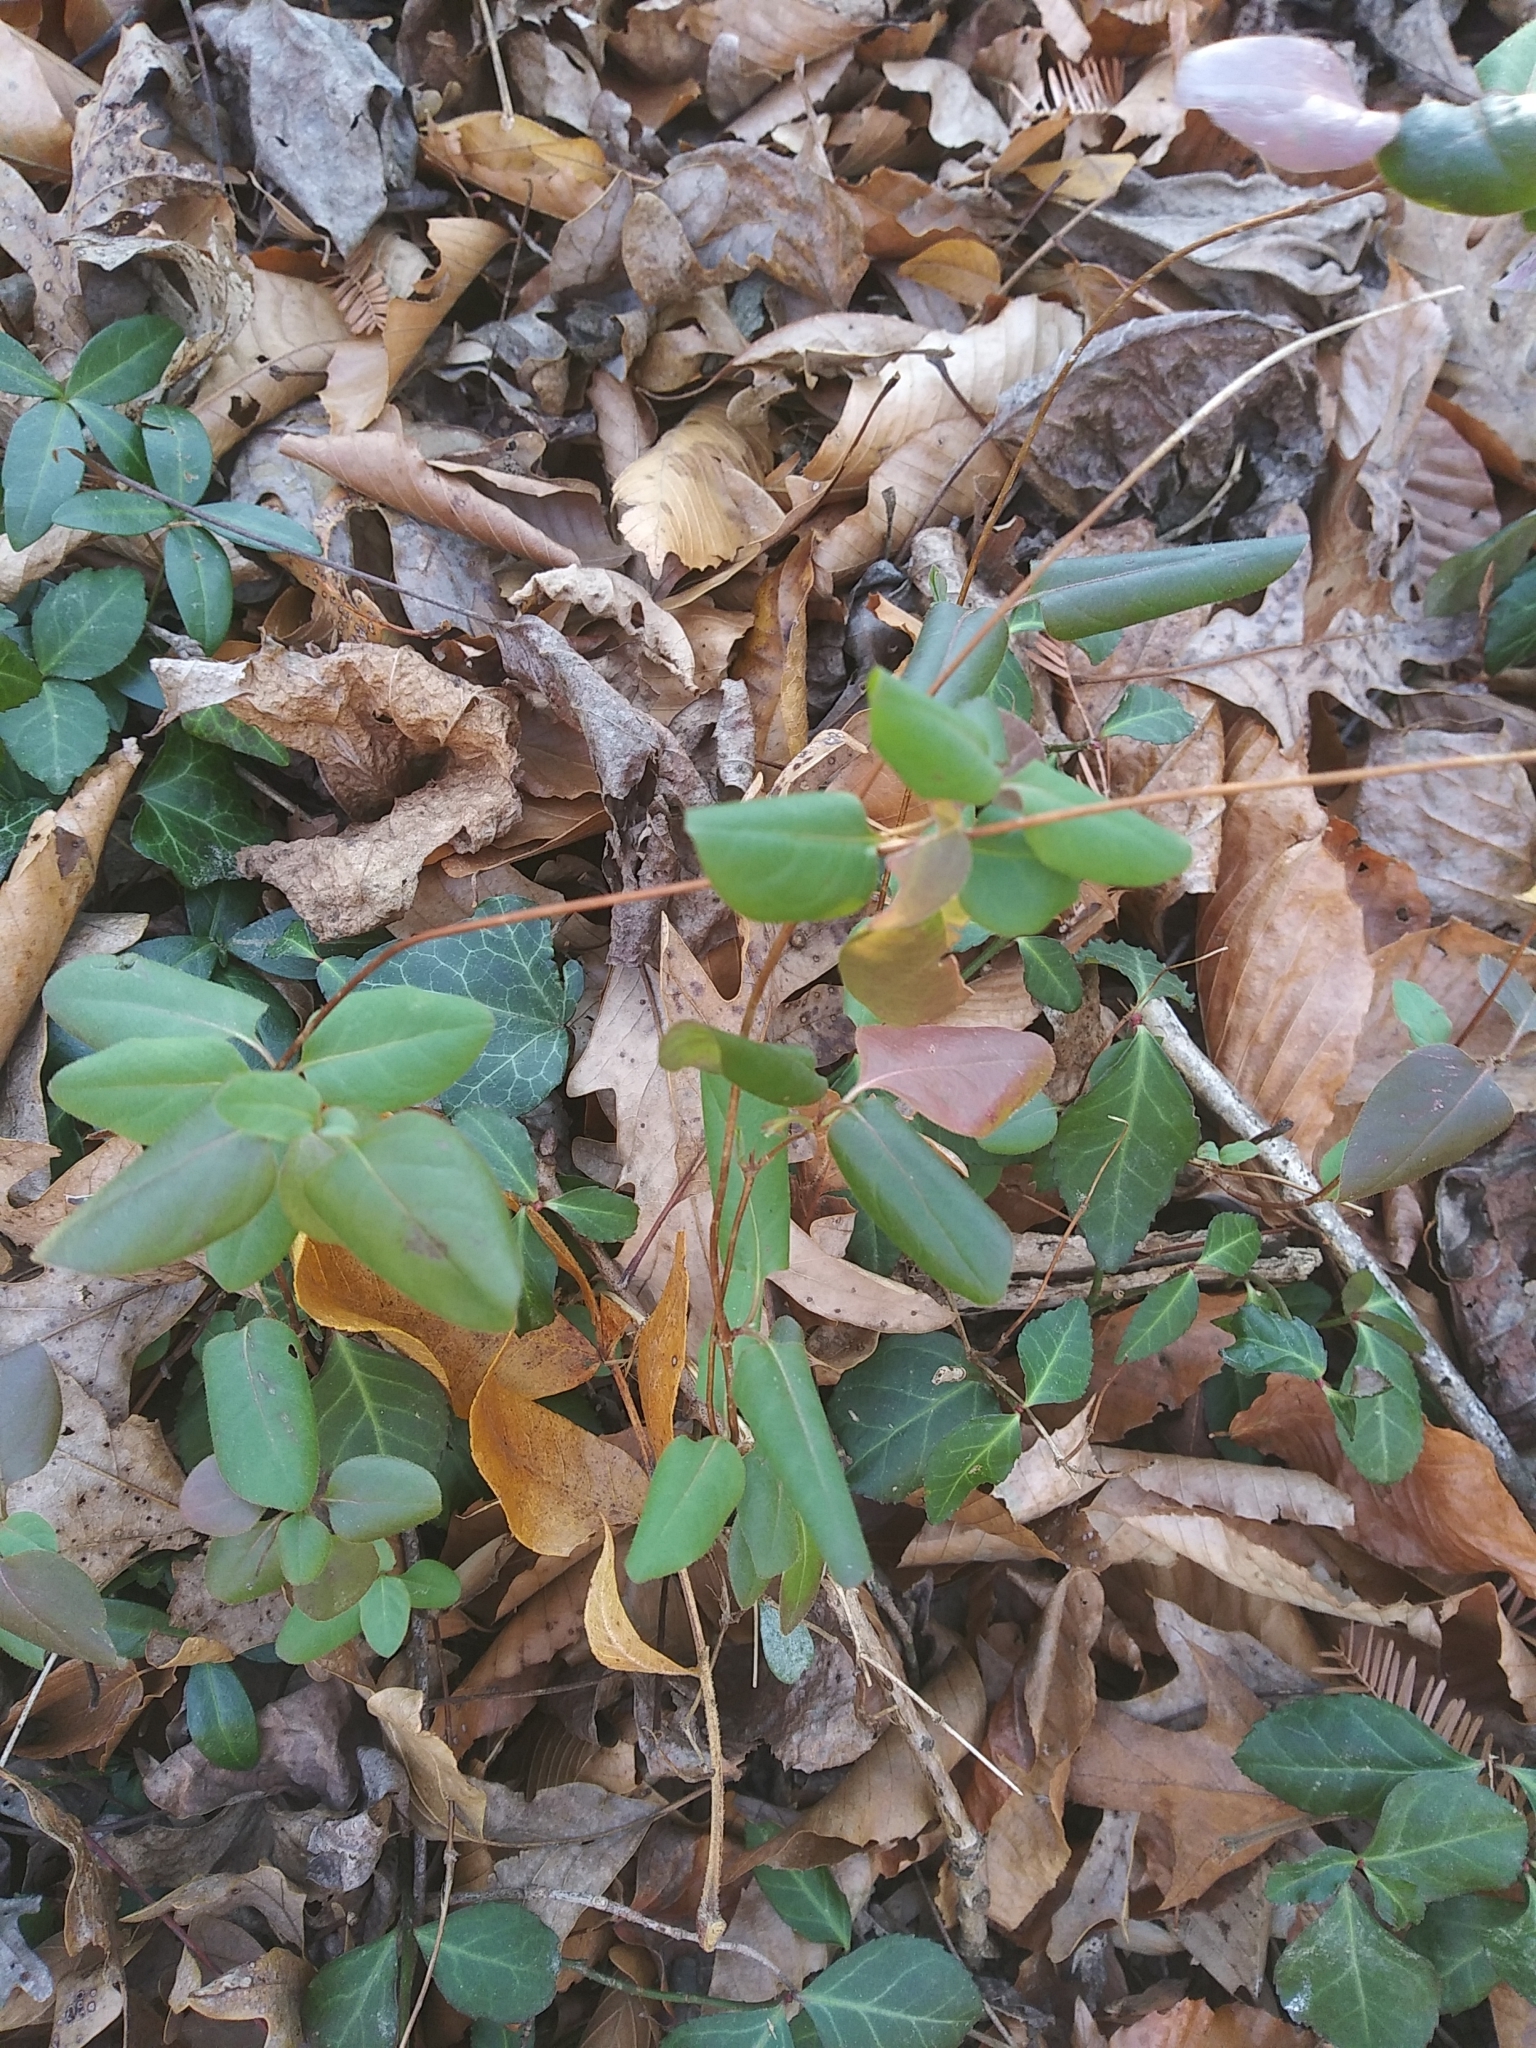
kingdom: Plantae
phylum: Tracheophyta
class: Magnoliopsida
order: Dipsacales
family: Caprifoliaceae
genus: Lonicera
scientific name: Lonicera japonica
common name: Japanese honeysuckle
